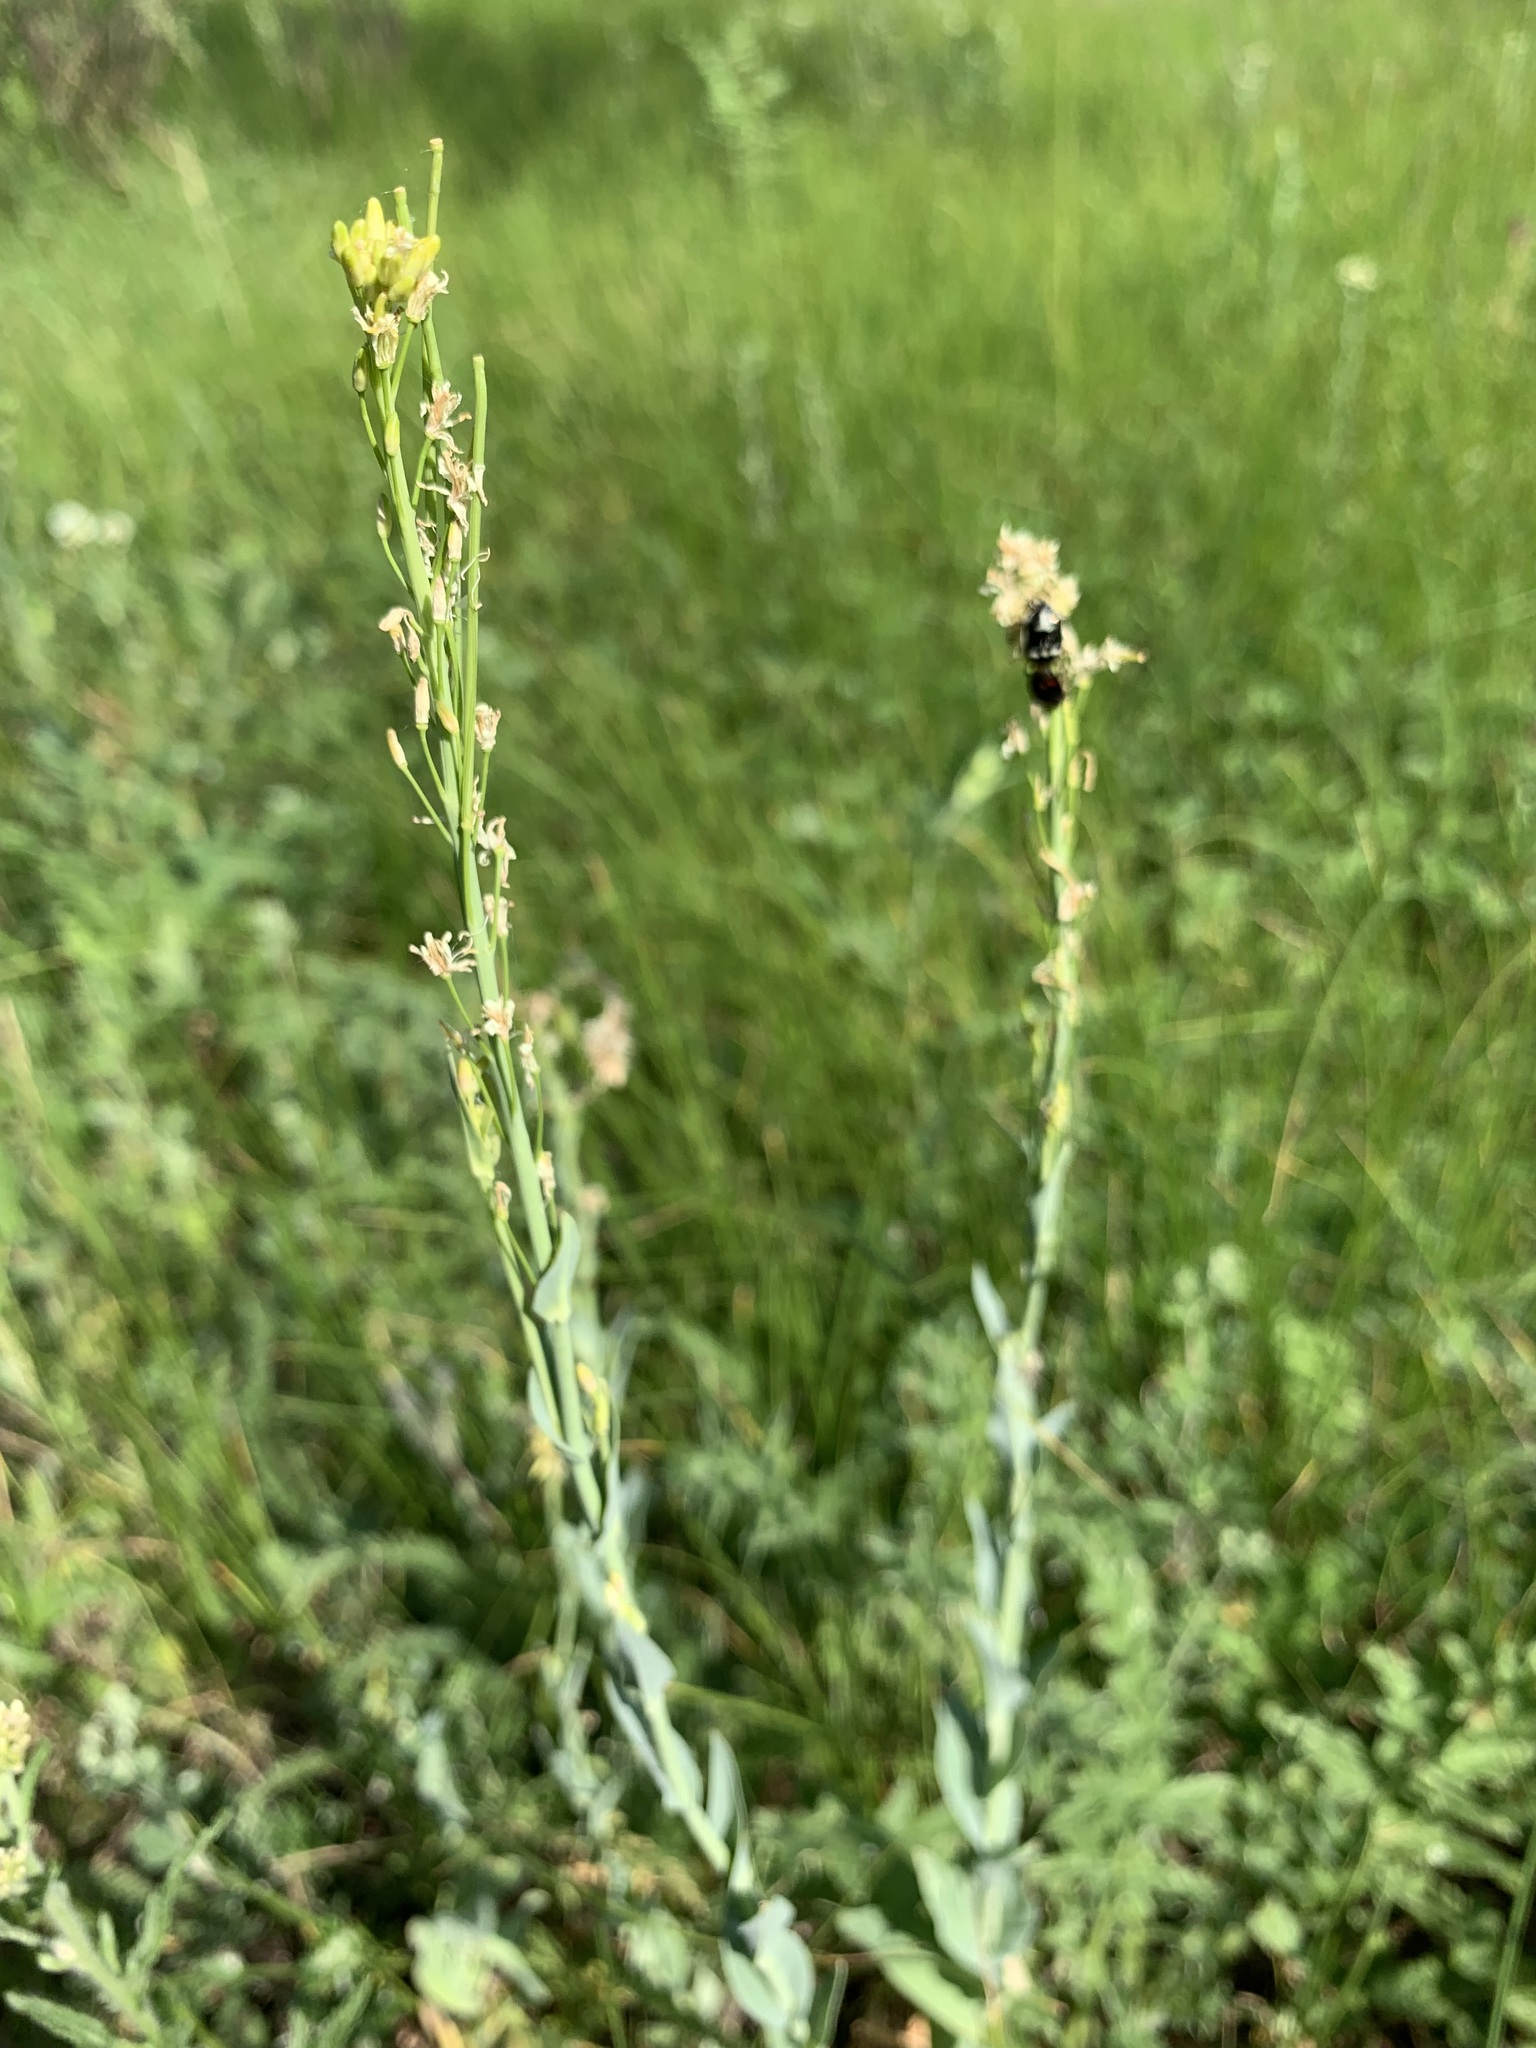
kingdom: Plantae
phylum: Tracheophyta
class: Magnoliopsida
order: Brassicales
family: Brassicaceae
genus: Turritis
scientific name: Turritis glabra
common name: Tower rockcress
